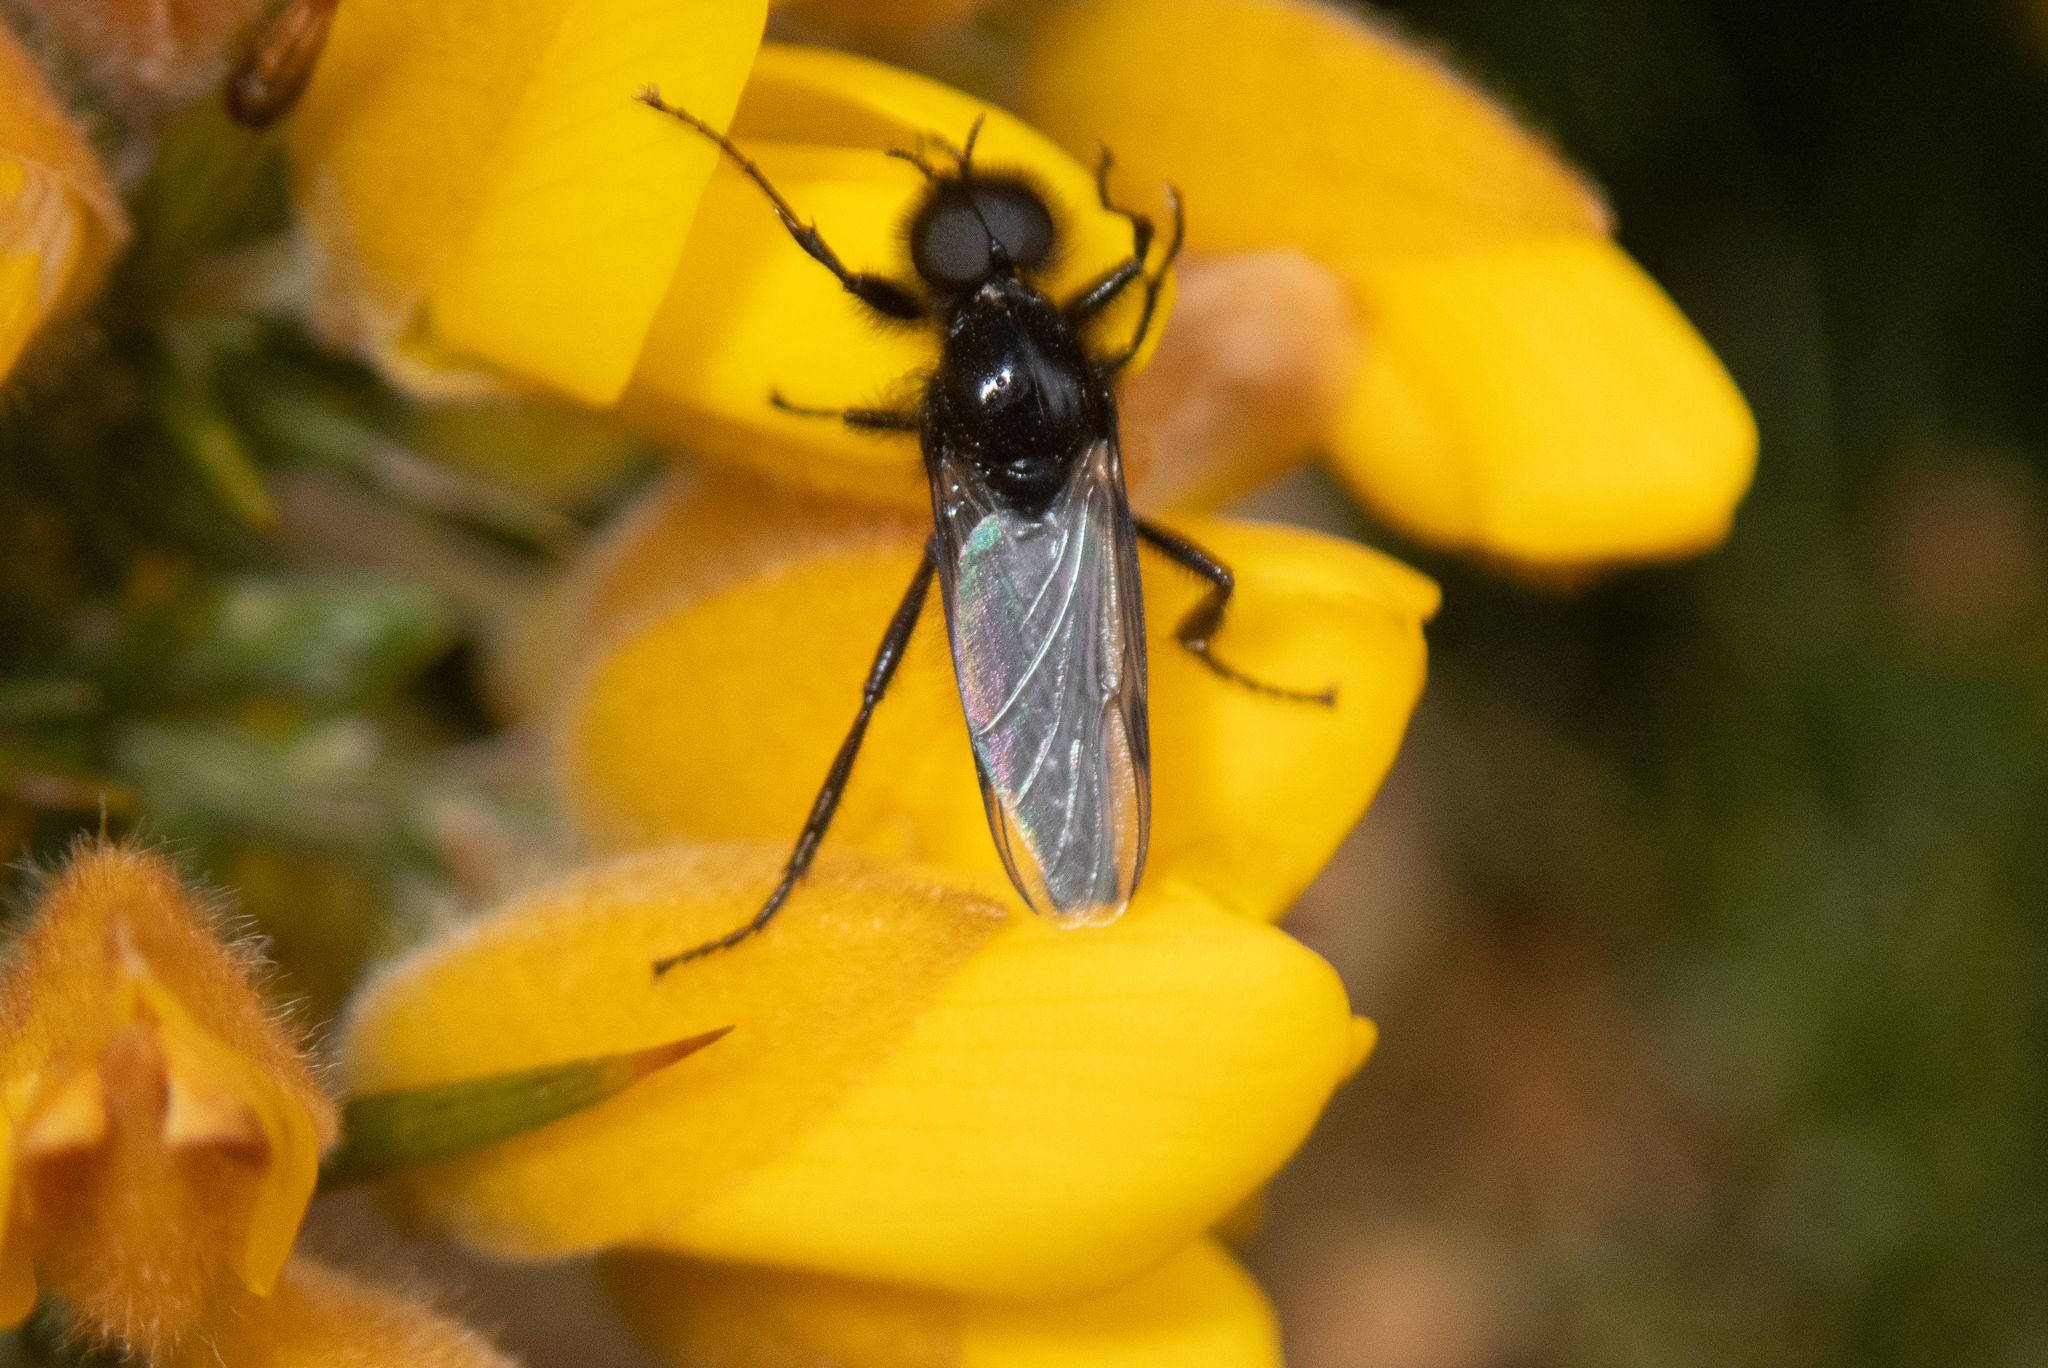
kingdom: Animalia
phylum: Arthropoda
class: Insecta
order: Diptera
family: Bibionidae
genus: Bibio
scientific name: Bibio marci
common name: St marks fly
